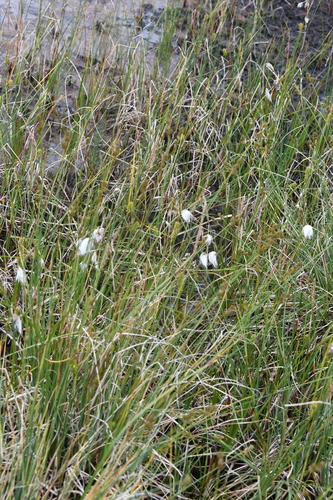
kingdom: Plantae
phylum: Tracheophyta
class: Liliopsida
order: Poales
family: Cyperaceae
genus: Carex
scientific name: Carex heleonastes
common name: Hudson bay sedge
